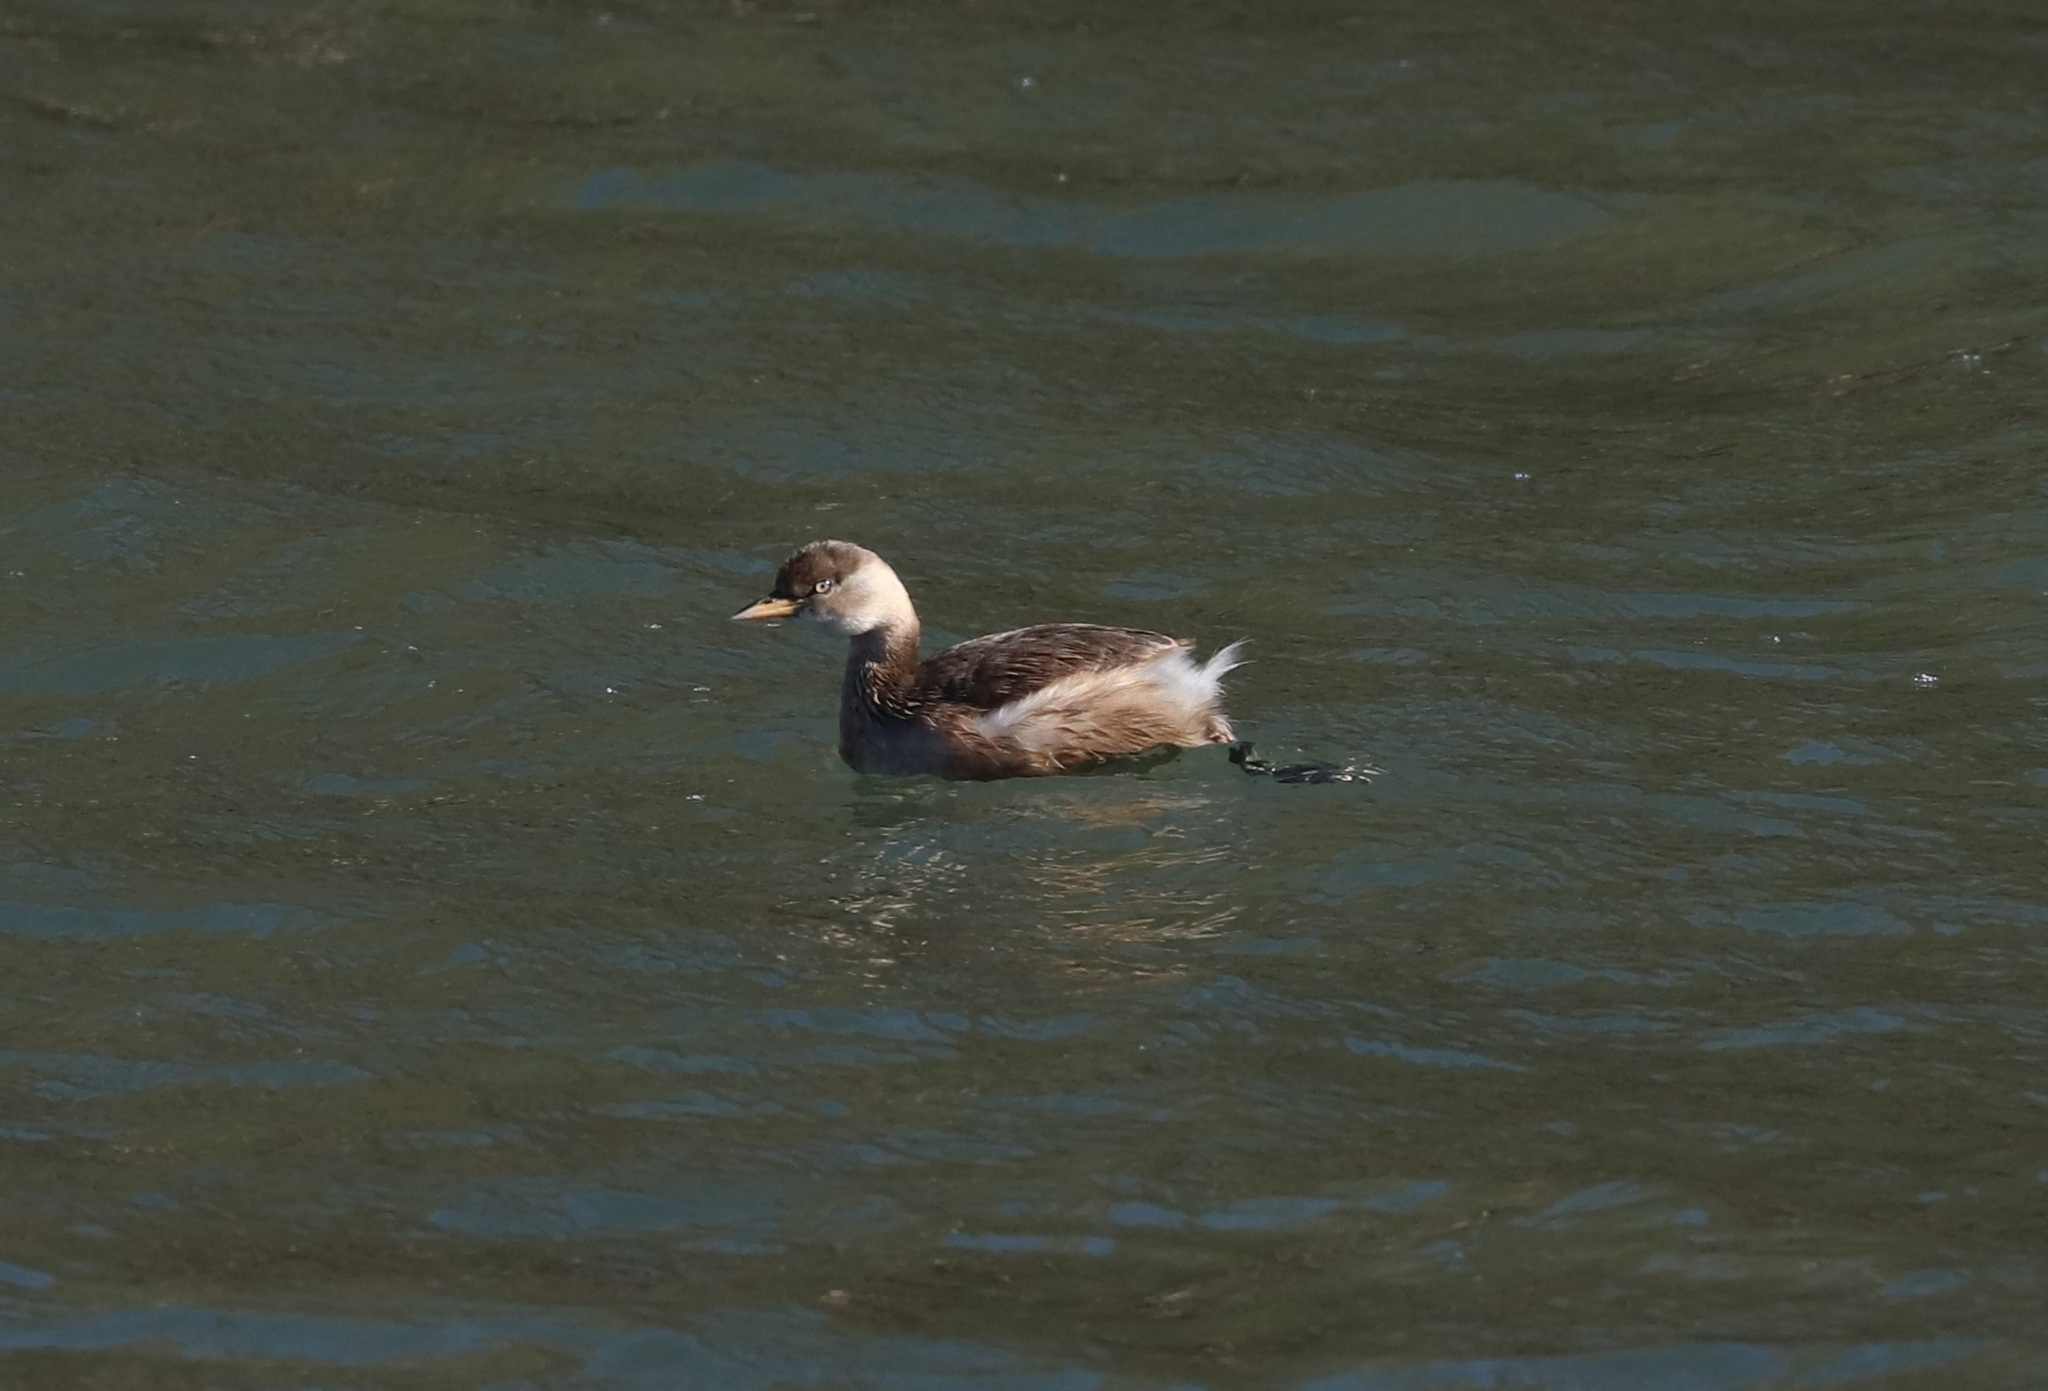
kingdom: Animalia
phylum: Chordata
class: Aves
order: Podicipediformes
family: Podicipedidae
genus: Tachybaptus
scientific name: Tachybaptus ruficollis
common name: Little grebe
